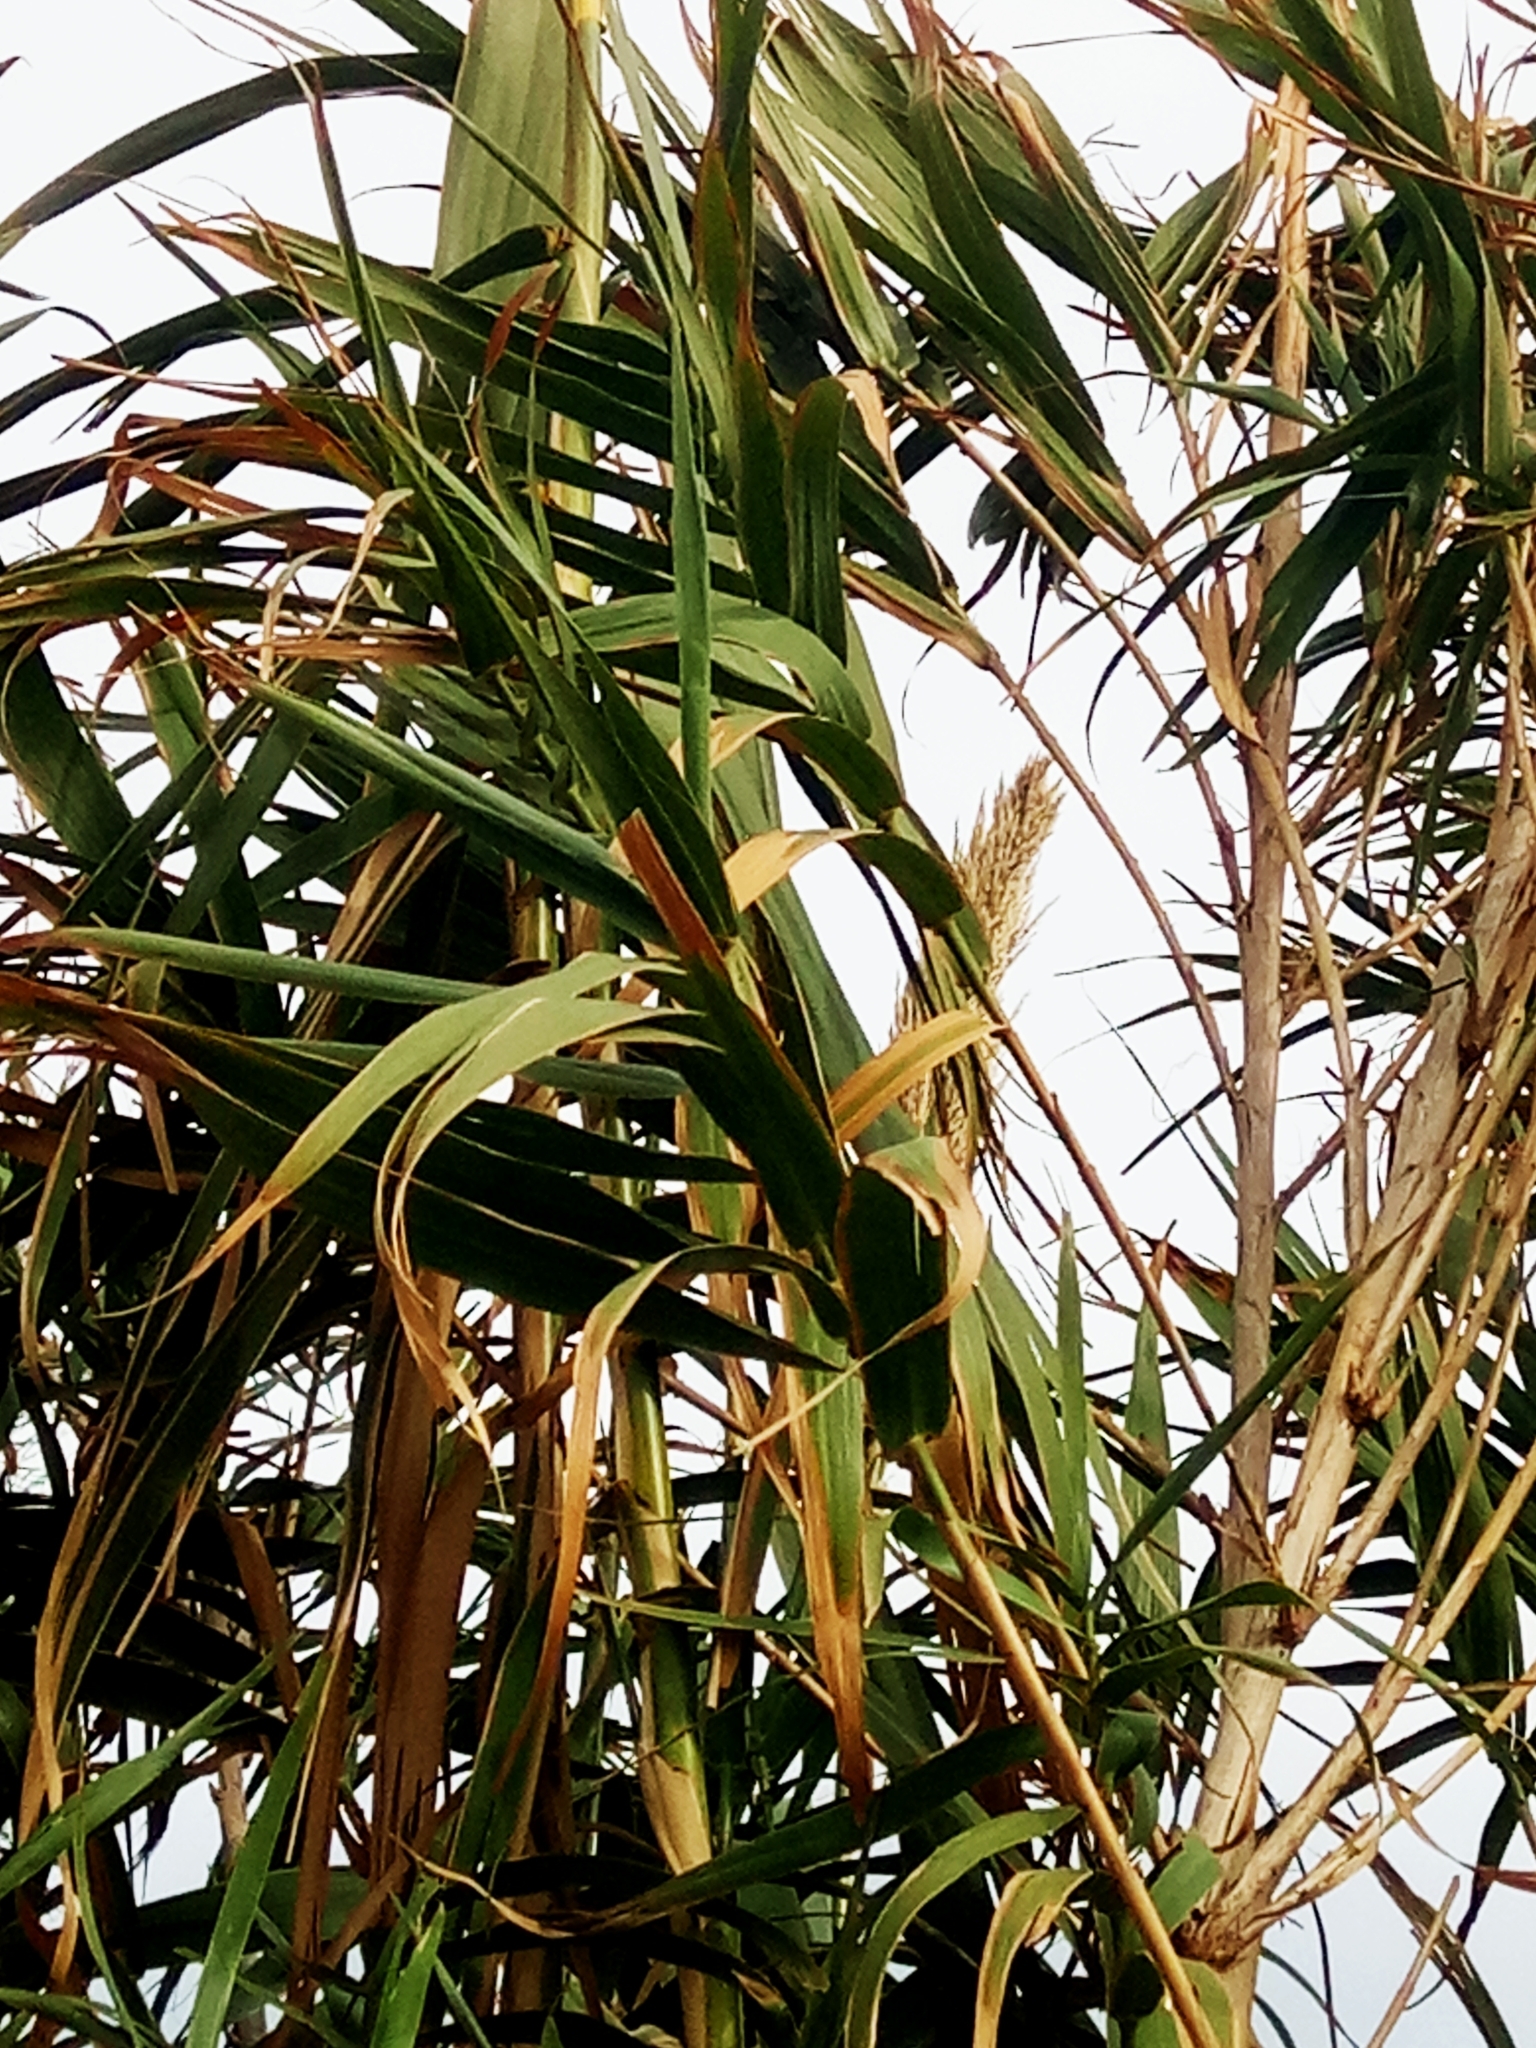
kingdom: Plantae
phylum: Tracheophyta
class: Magnoliopsida
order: Malpighiales
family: Euphorbiaceae
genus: Euphorbia
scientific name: Euphorbia helioscopia
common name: Sun spurge
